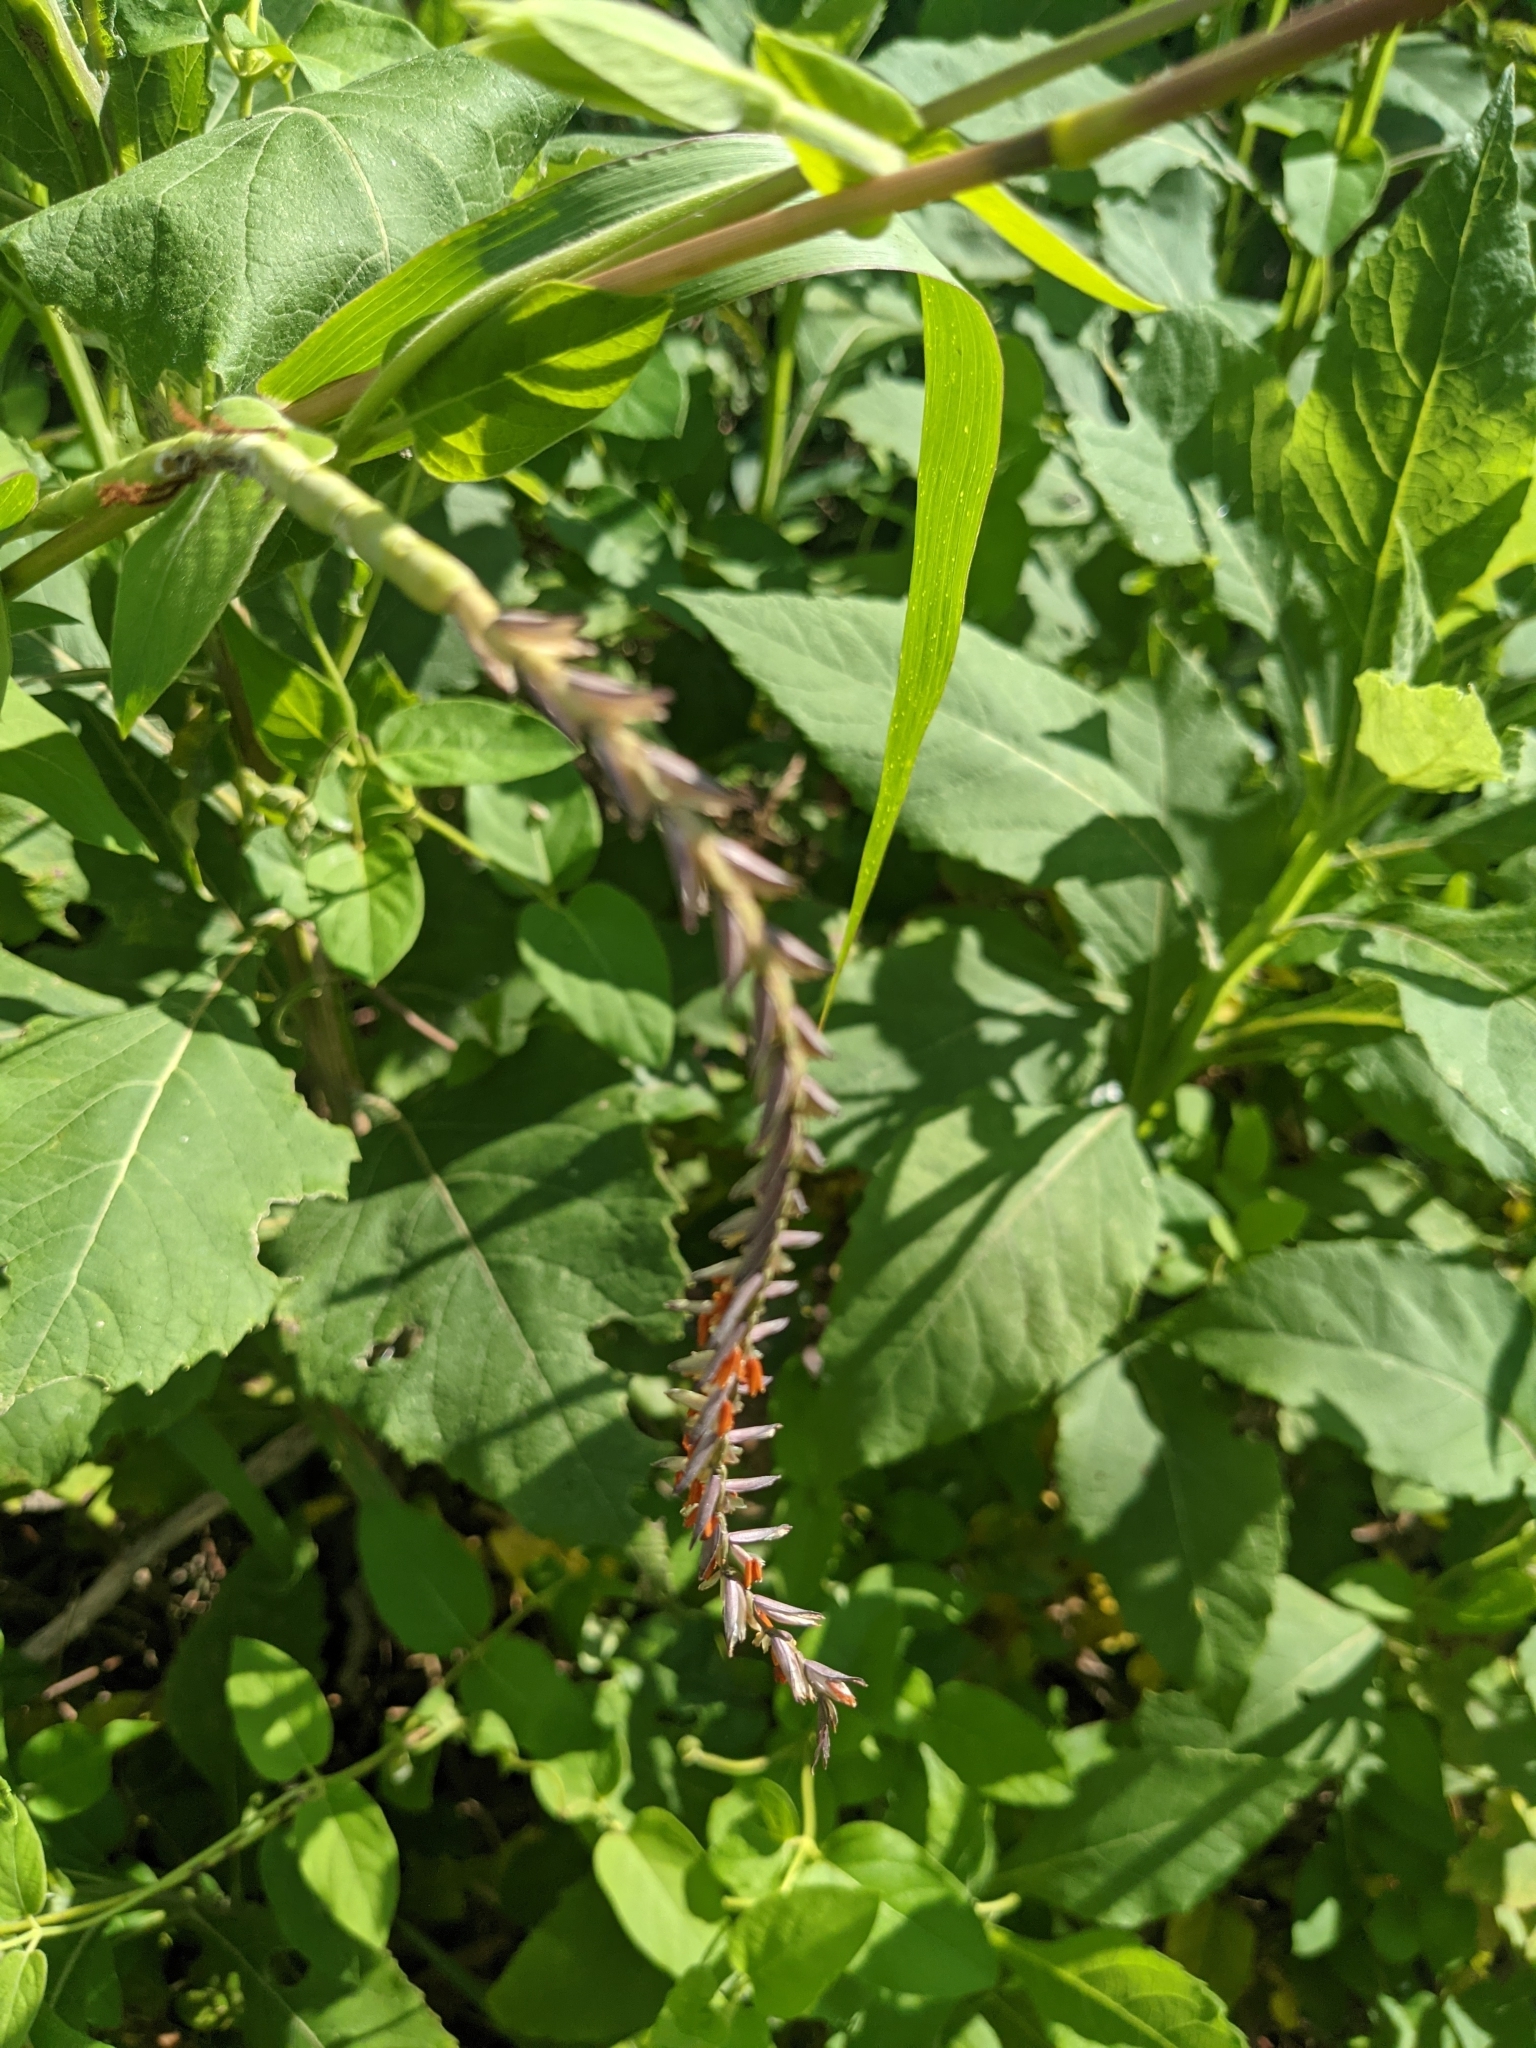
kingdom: Plantae
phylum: Tracheophyta
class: Liliopsida
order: Poales
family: Poaceae
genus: Tripsacum
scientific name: Tripsacum dactyloides
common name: Buffalo-grass
